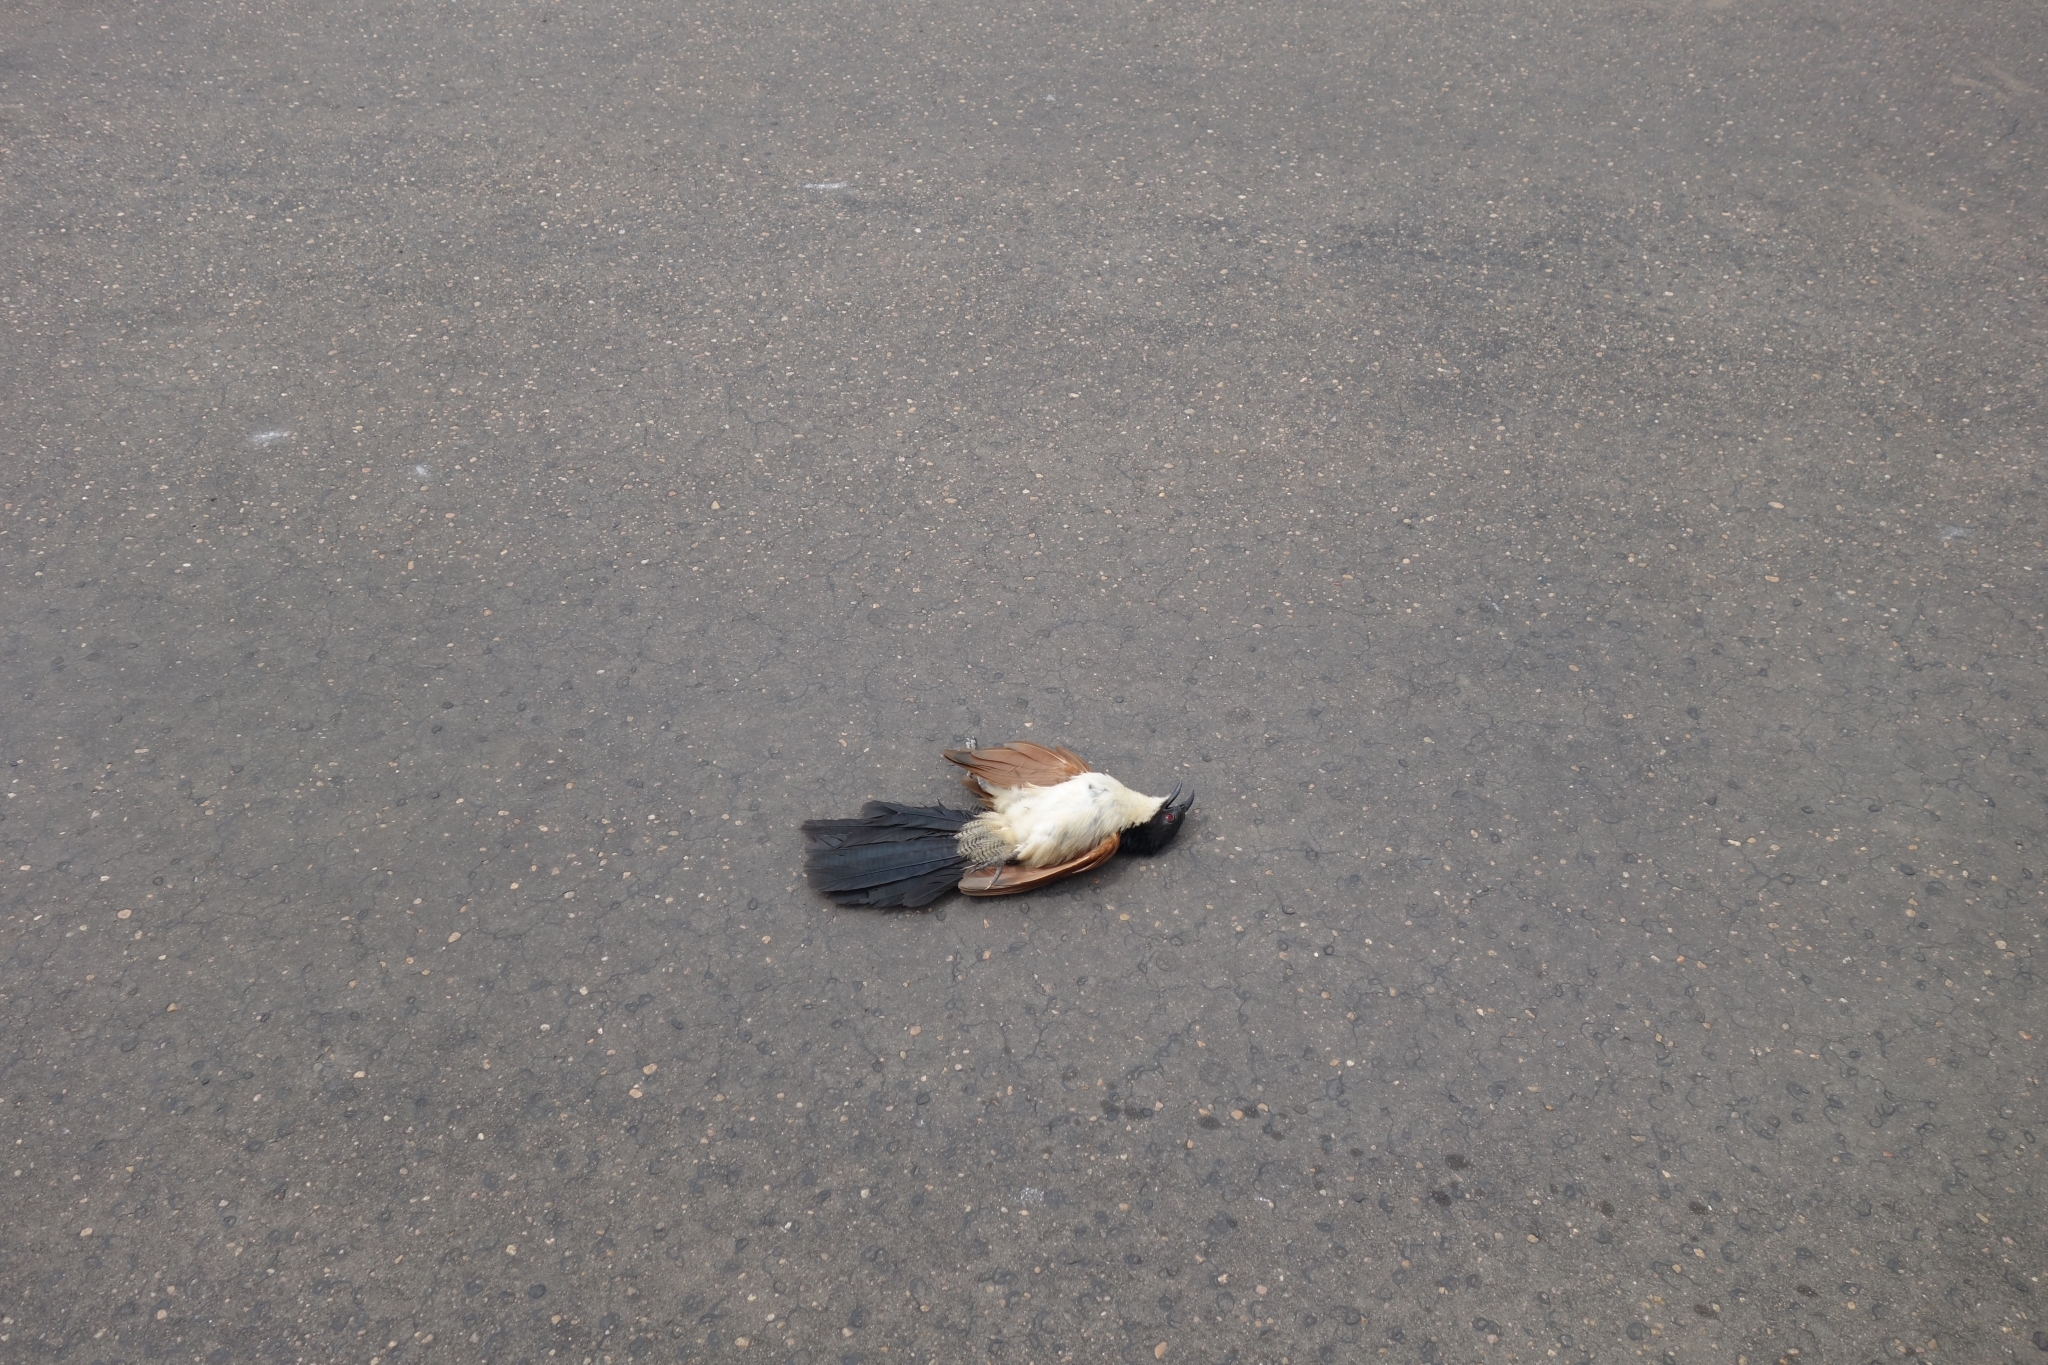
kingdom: Animalia
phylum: Chordata
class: Aves
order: Cuculiformes
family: Cuculidae
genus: Centropus
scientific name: Centropus superciliosus
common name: White-browed coucal
